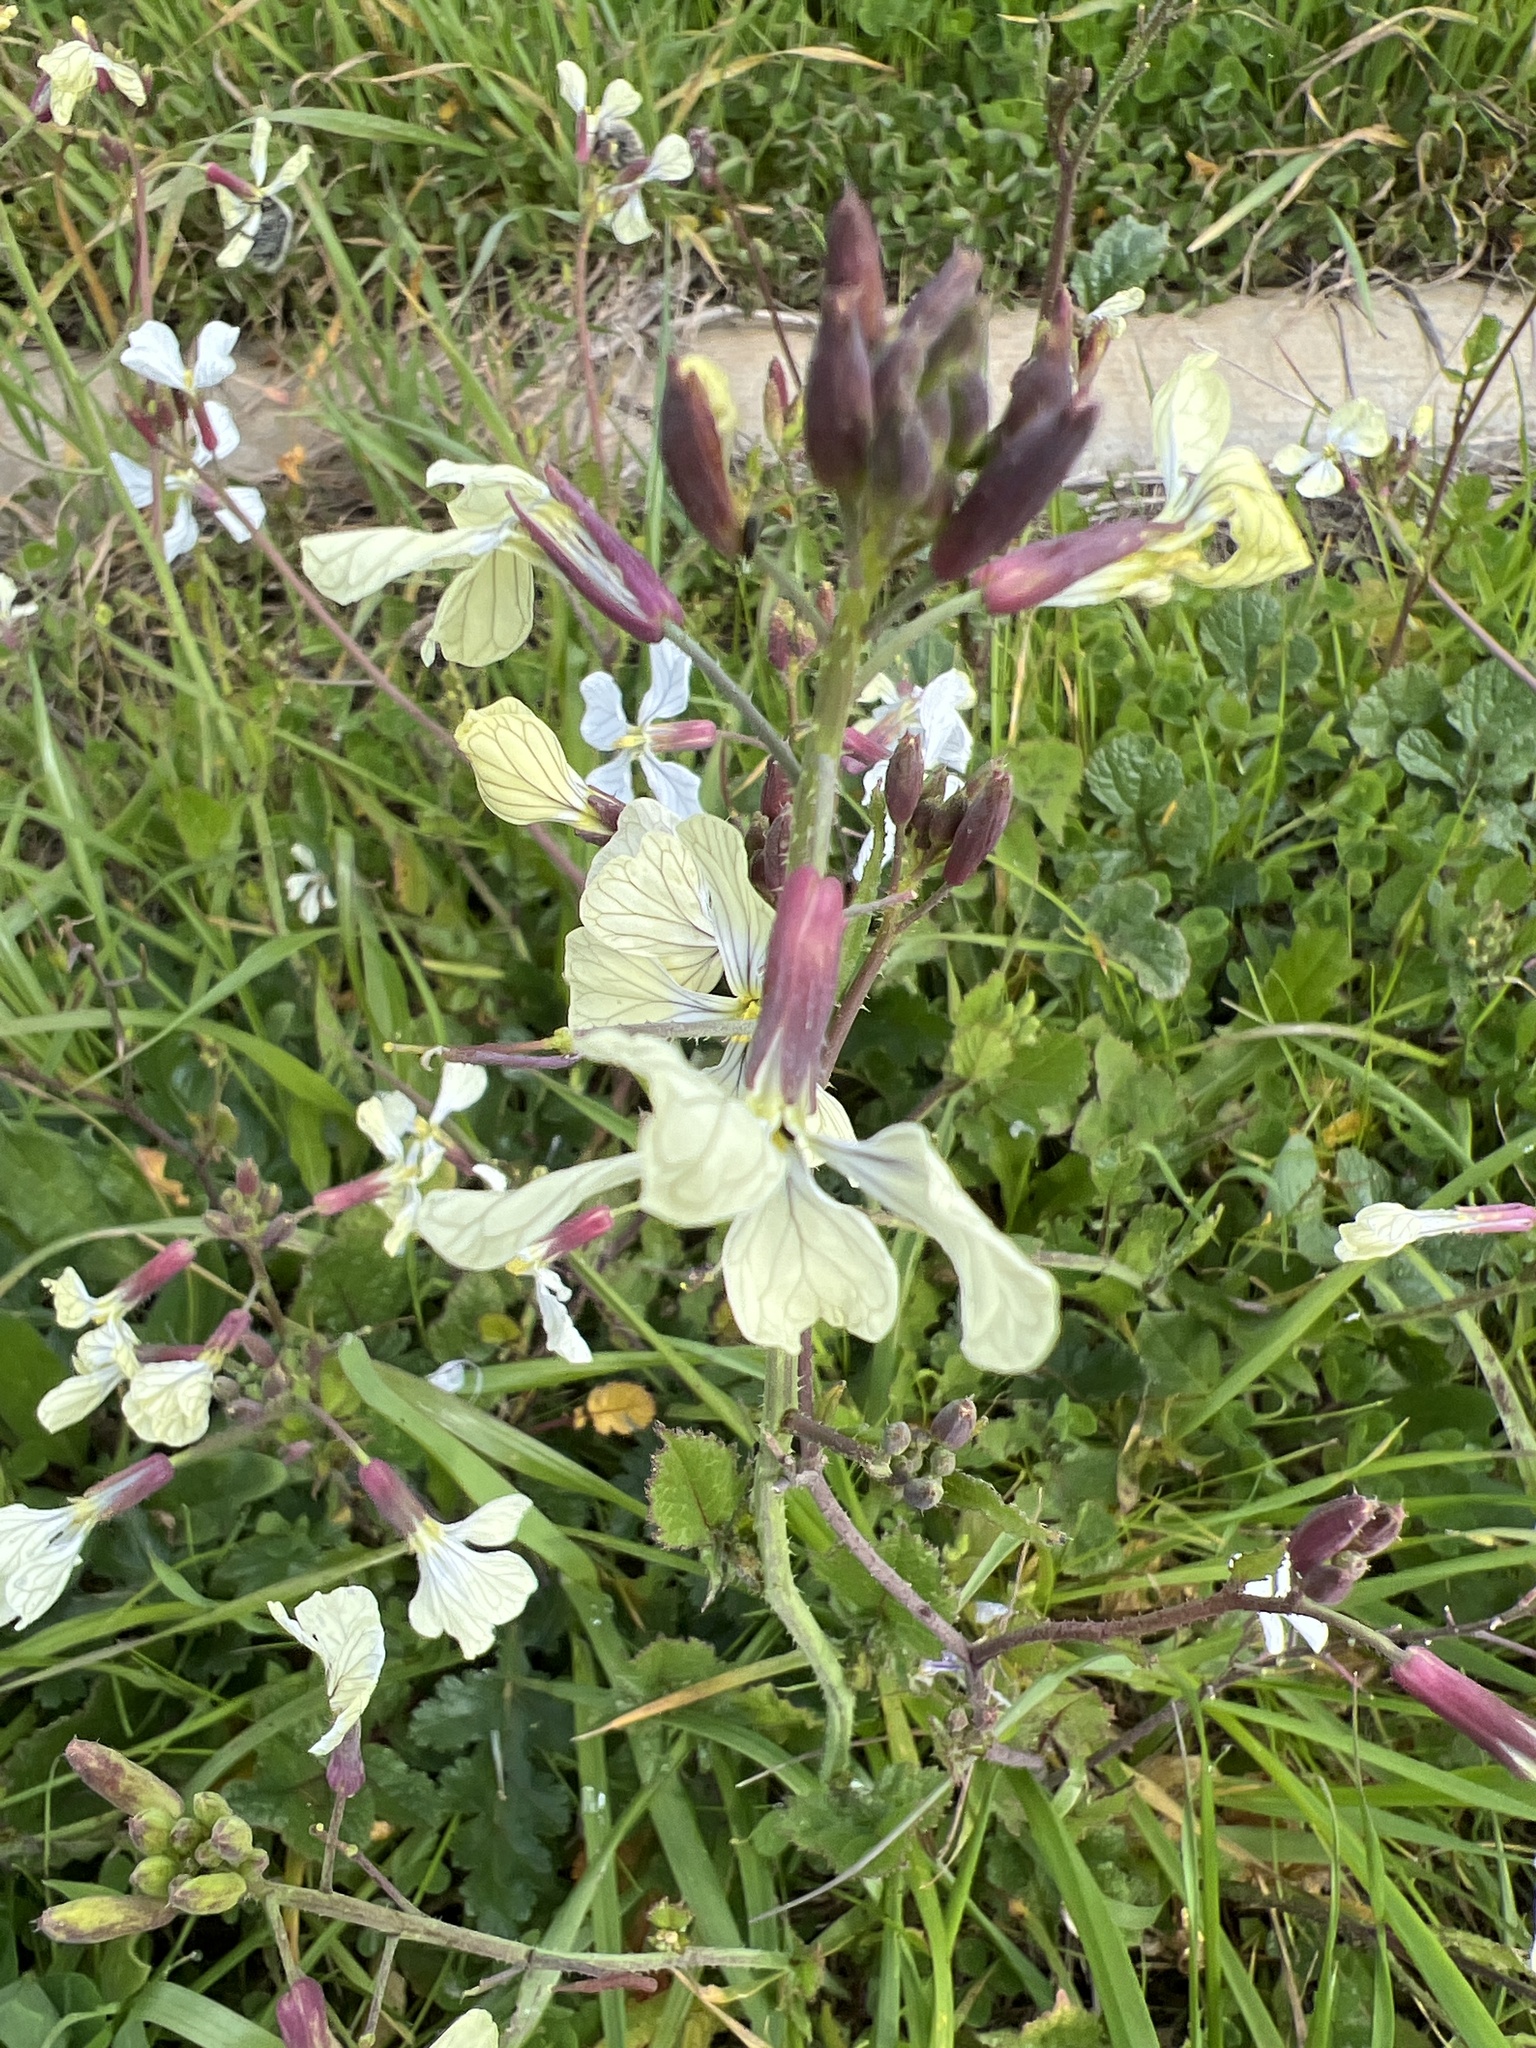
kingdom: Plantae
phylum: Tracheophyta
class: Magnoliopsida
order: Brassicales
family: Brassicaceae
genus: Eruca
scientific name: Eruca vesicaria
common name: Garden rocket
